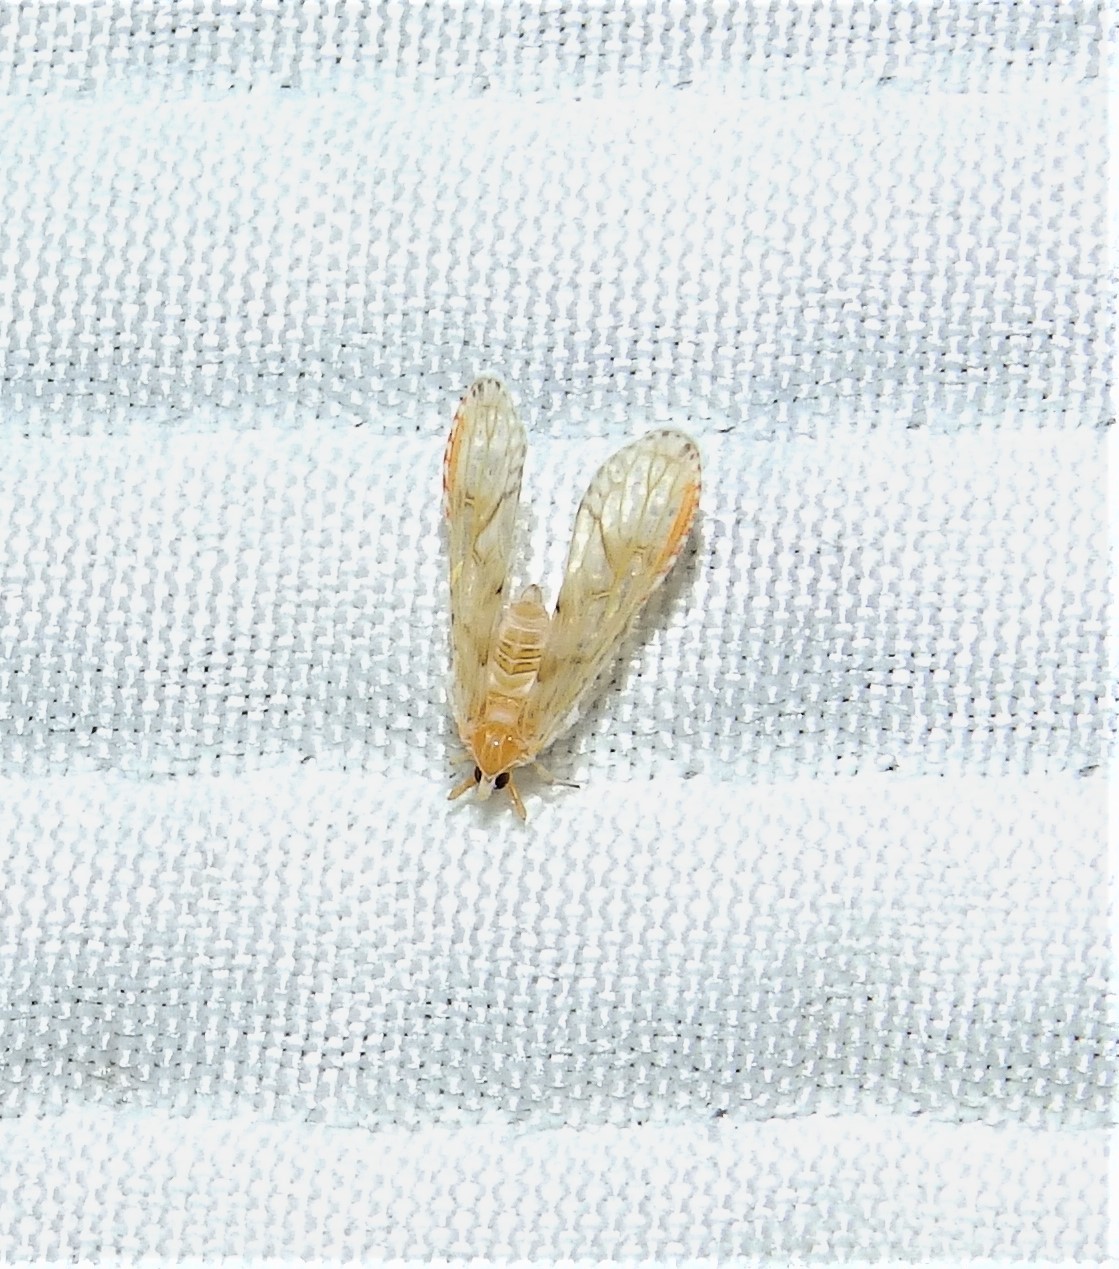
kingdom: Animalia
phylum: Arthropoda
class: Insecta
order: Hemiptera
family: Derbidae
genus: Anotia
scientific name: Anotia bonnetii
